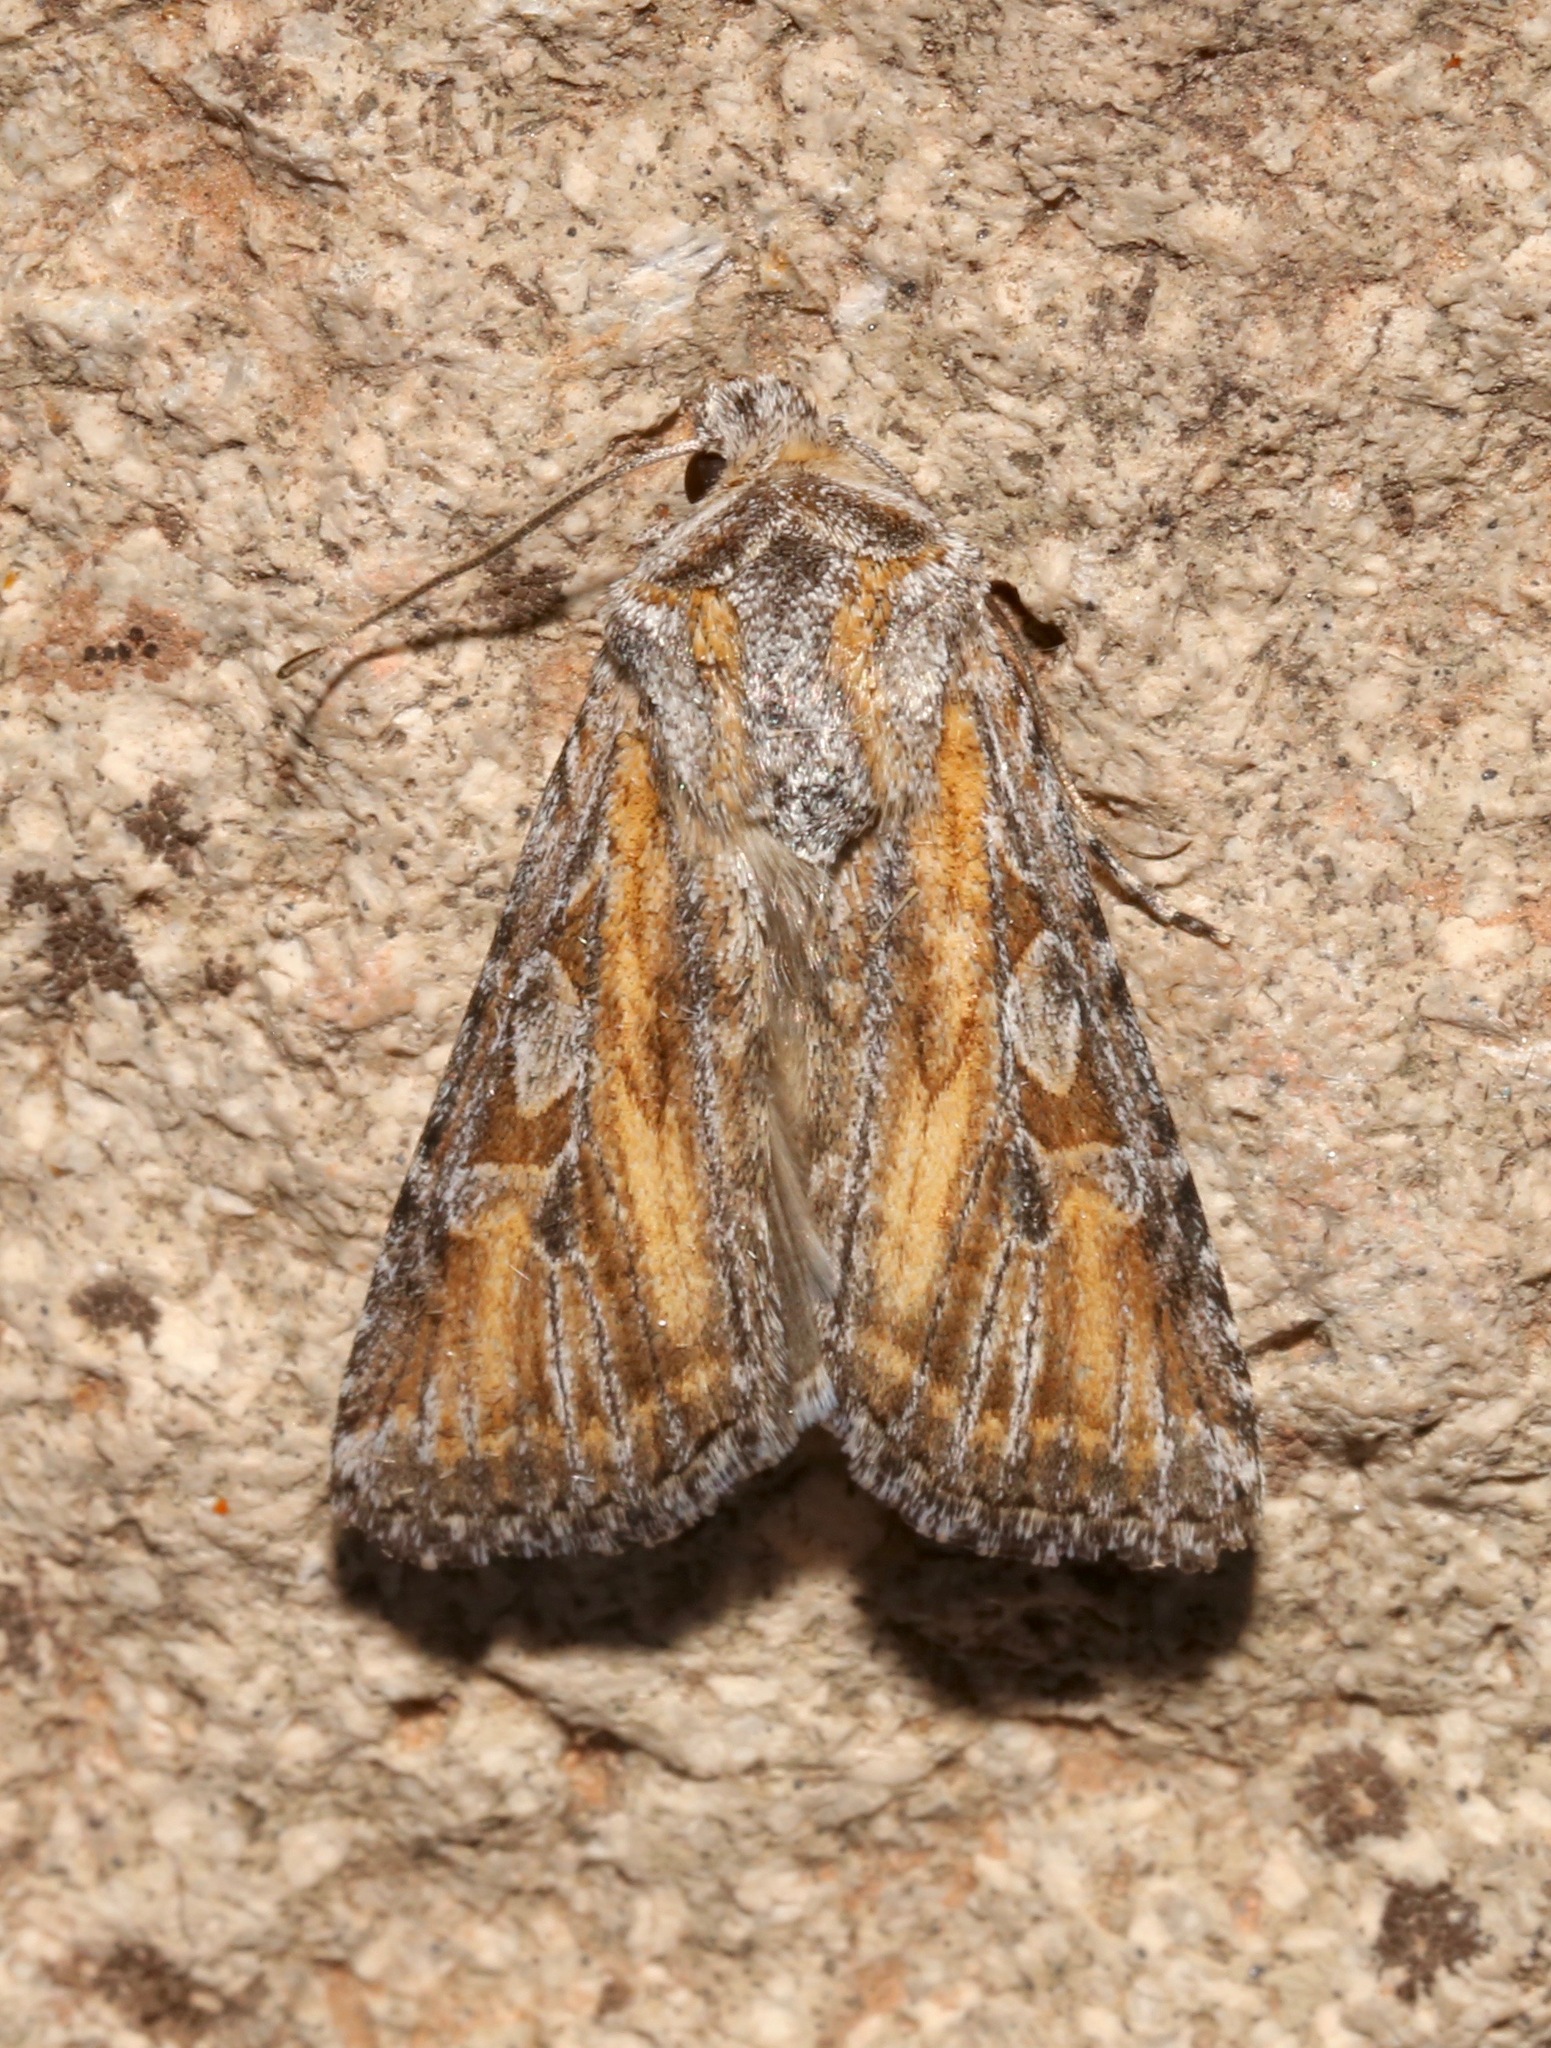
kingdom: Animalia
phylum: Arthropoda
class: Insecta
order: Lepidoptera
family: Noctuidae
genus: Euxoa
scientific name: Euxoa pluralis
